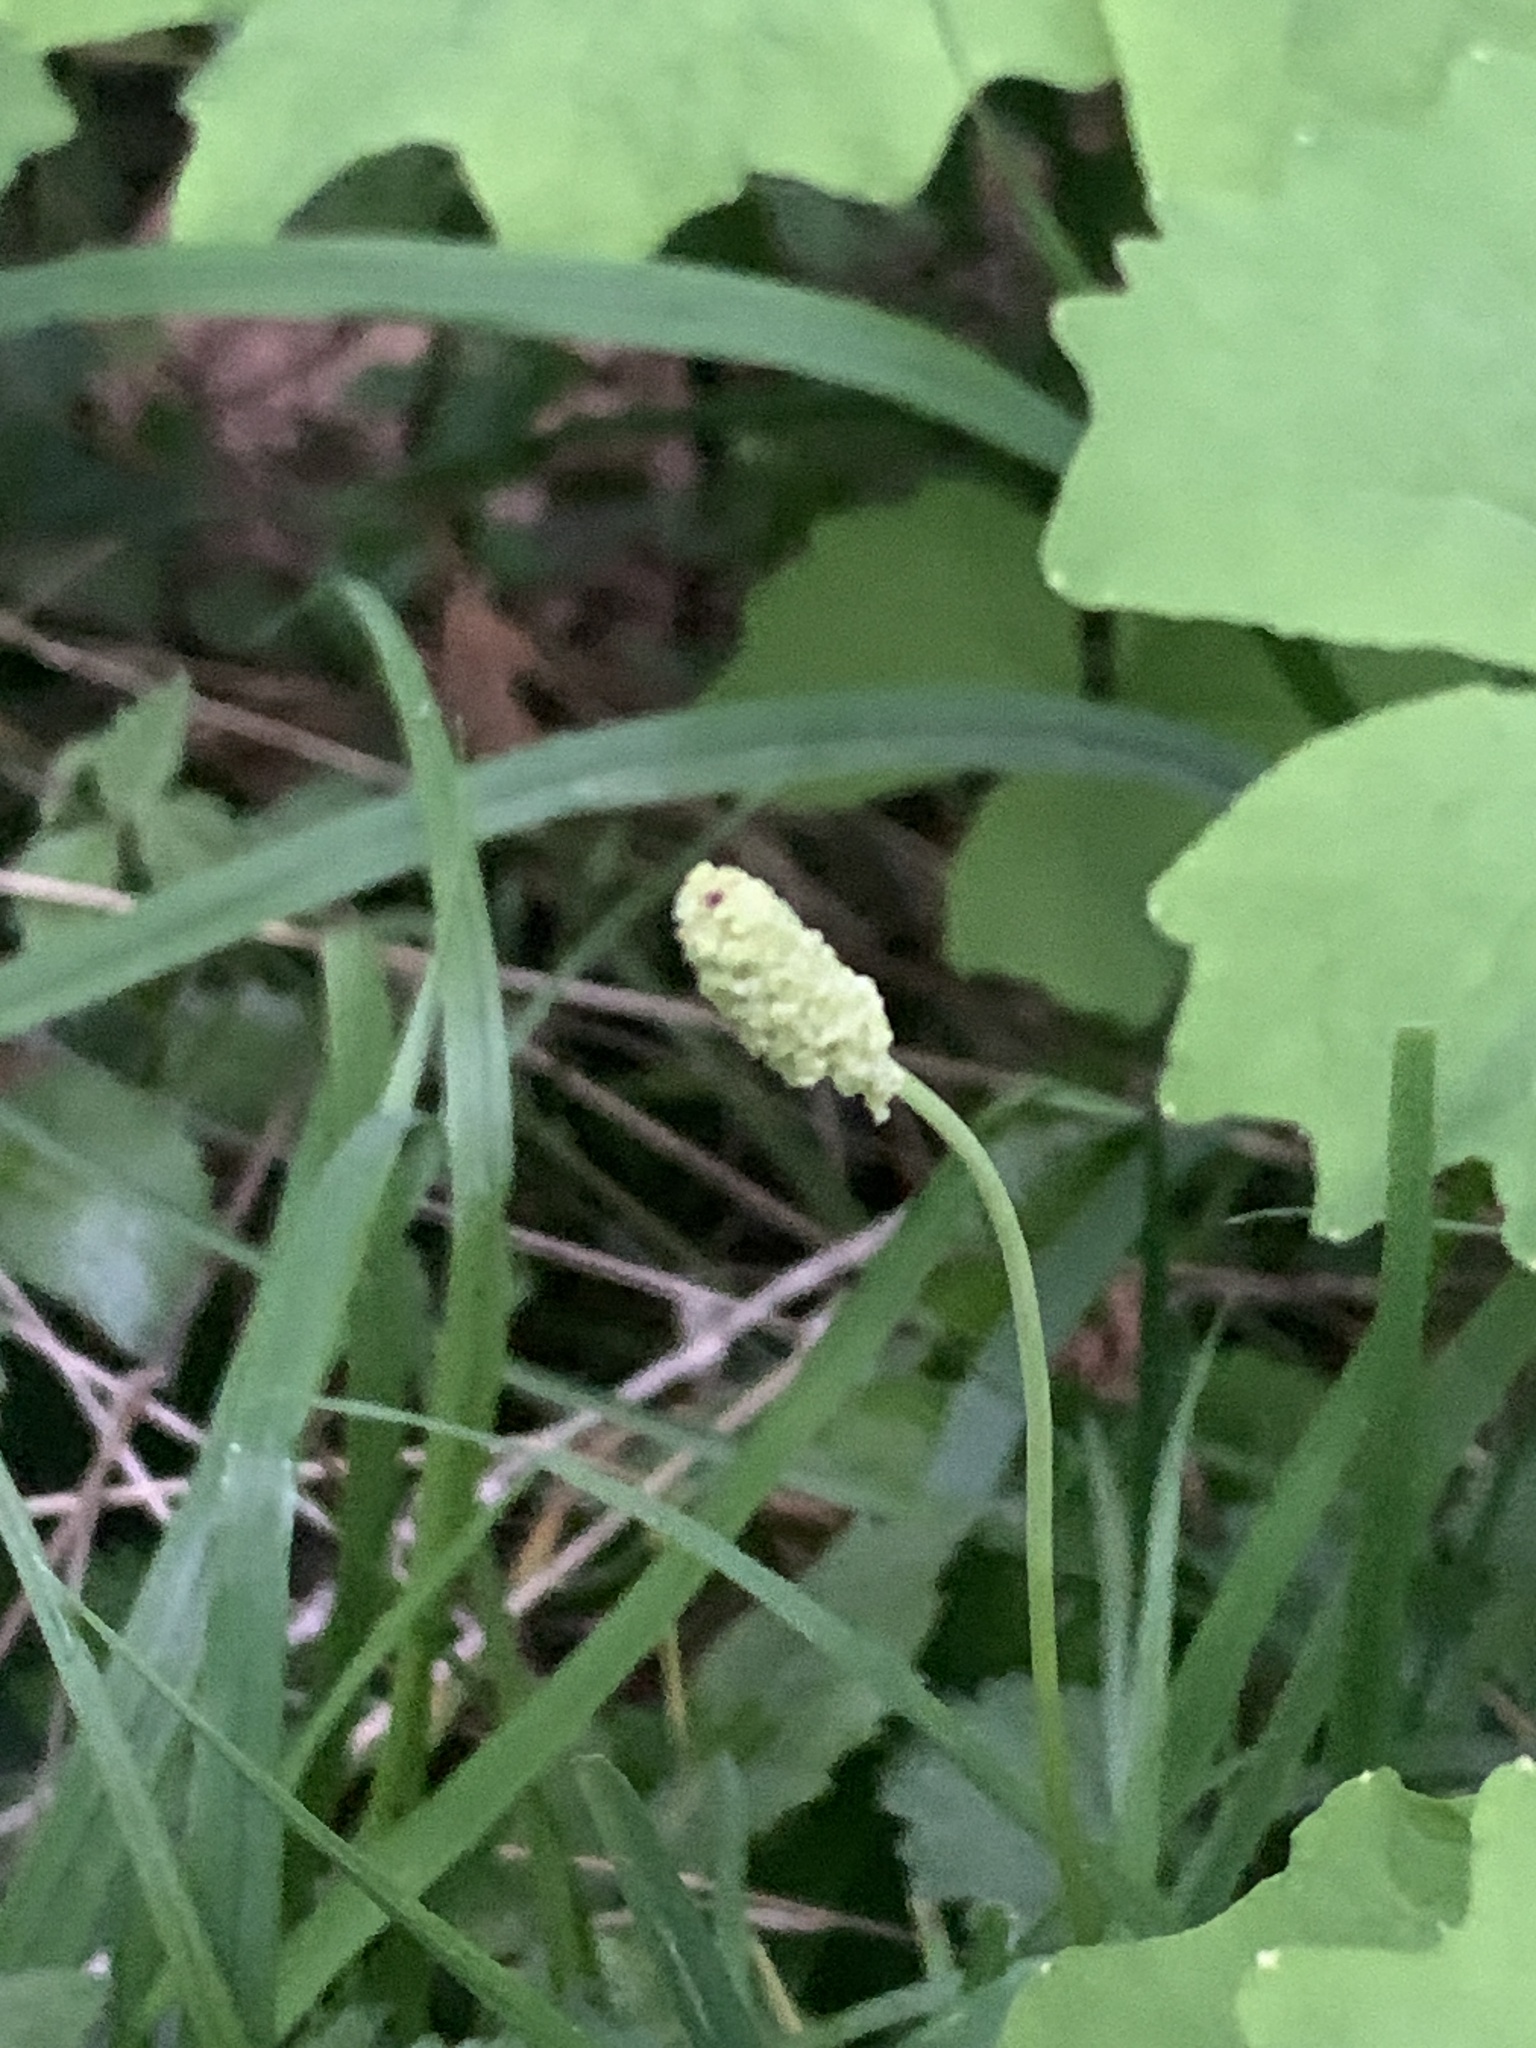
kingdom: Plantae
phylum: Tracheophyta
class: Magnoliopsida
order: Ranunculales
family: Berberidaceae
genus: Achlys
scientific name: Achlys triphylla
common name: Vanilla-leaf
